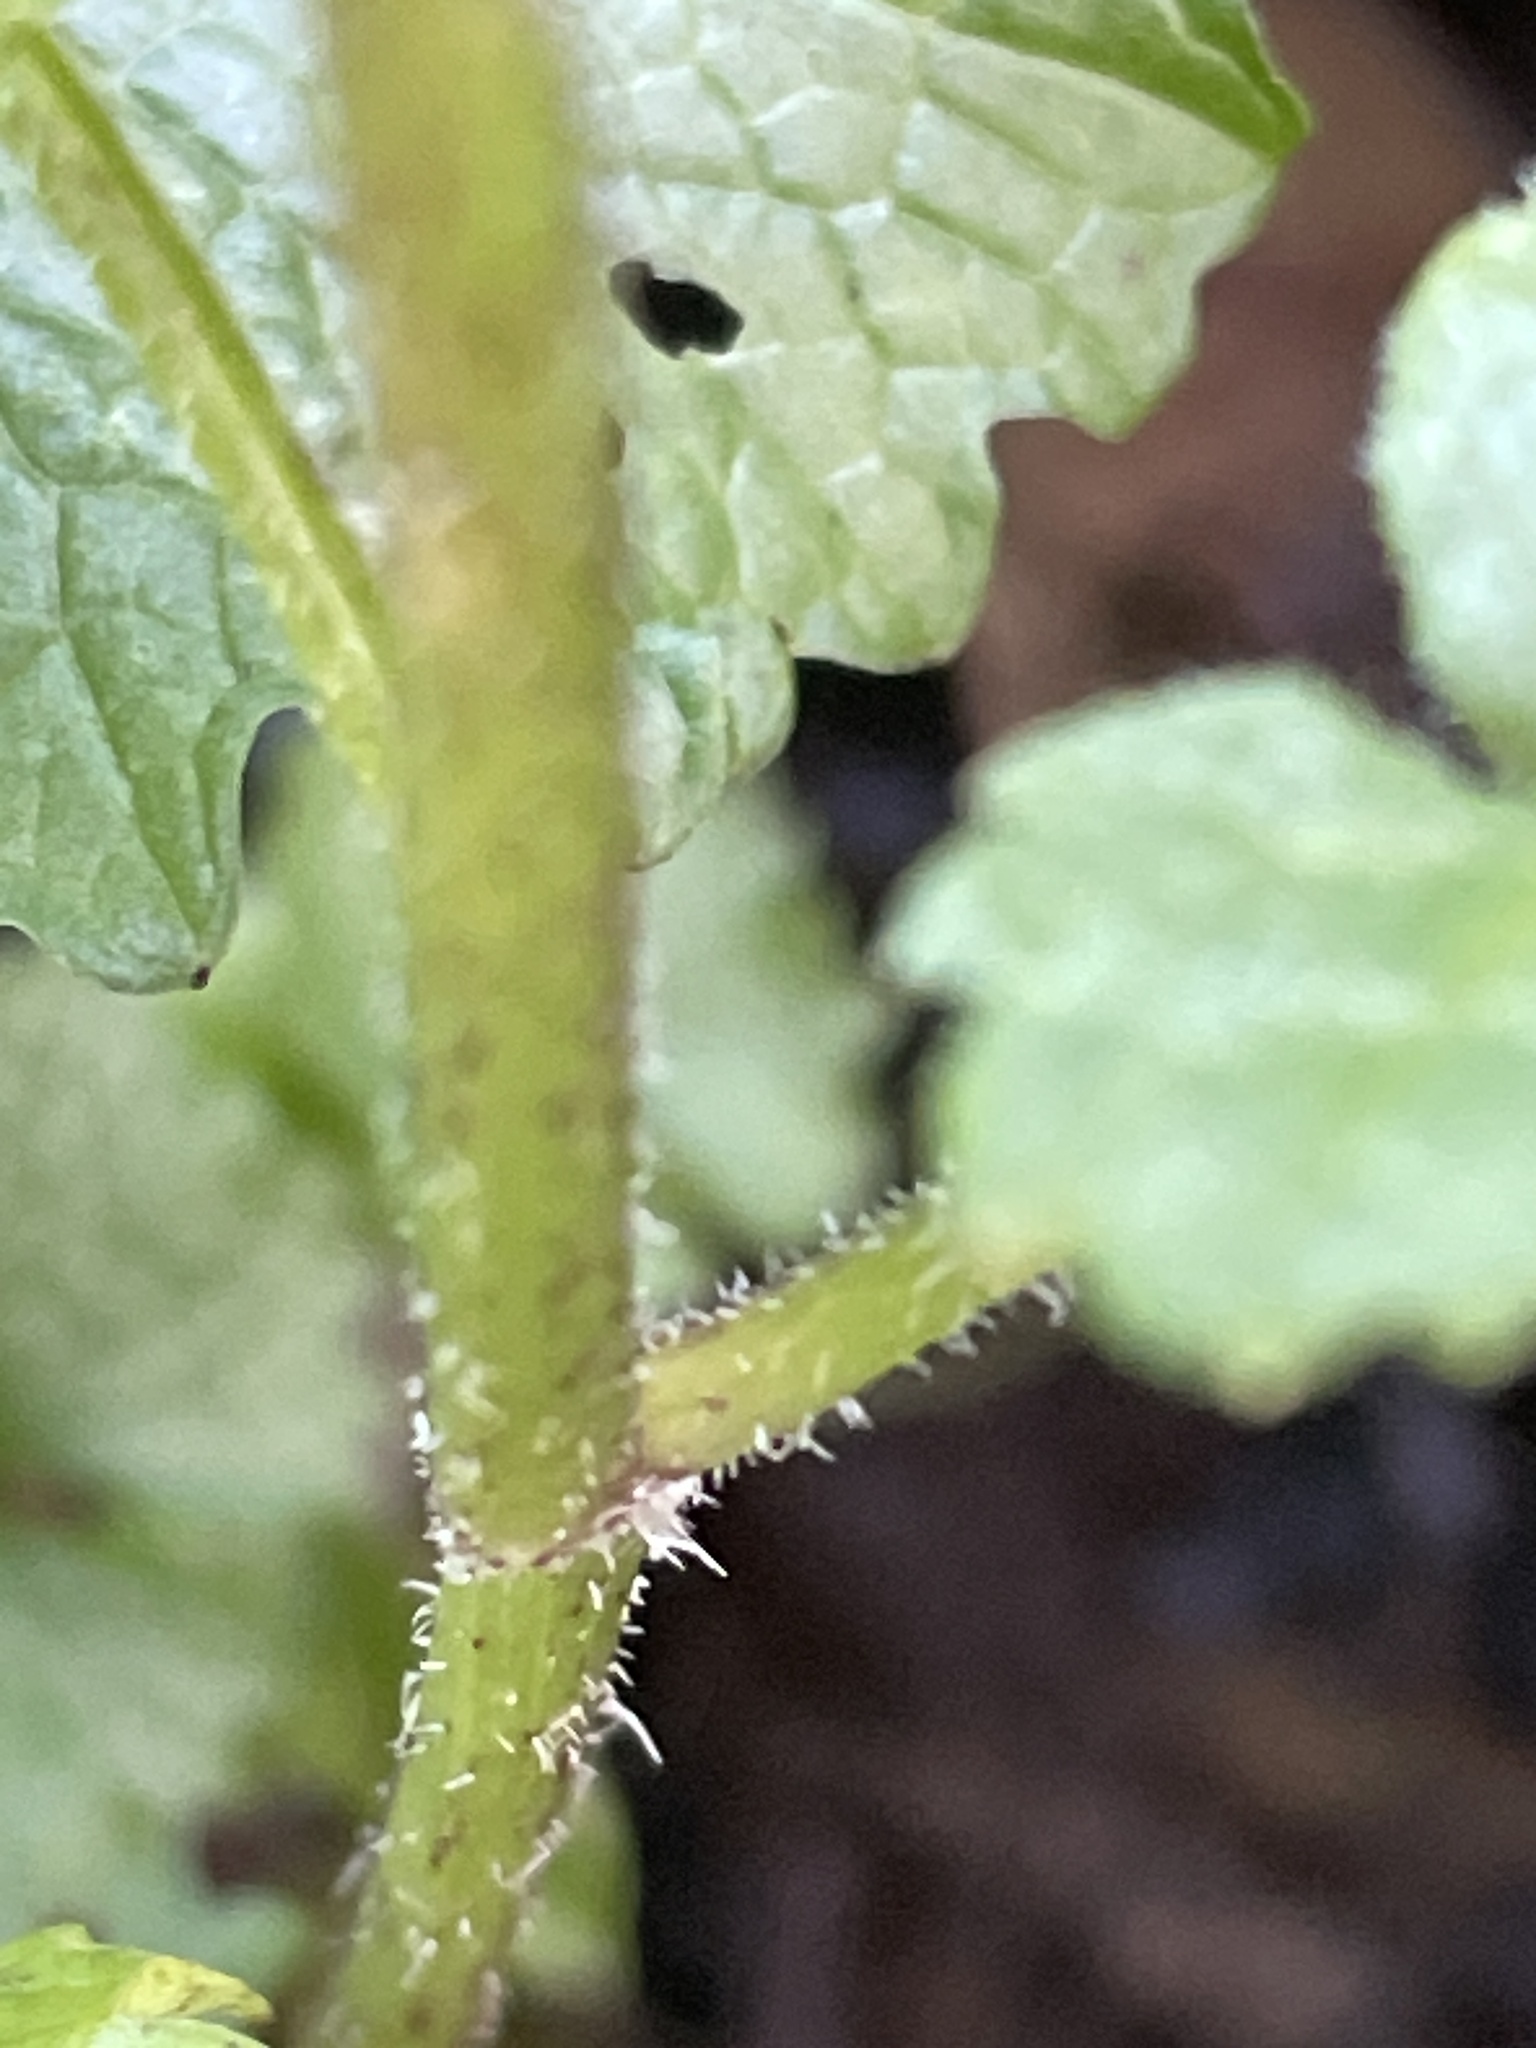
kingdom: Plantae
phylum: Tracheophyta
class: Magnoliopsida
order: Apiales
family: Apiaceae
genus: Heracleum
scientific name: Heracleum sphondylium
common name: Hogweed
